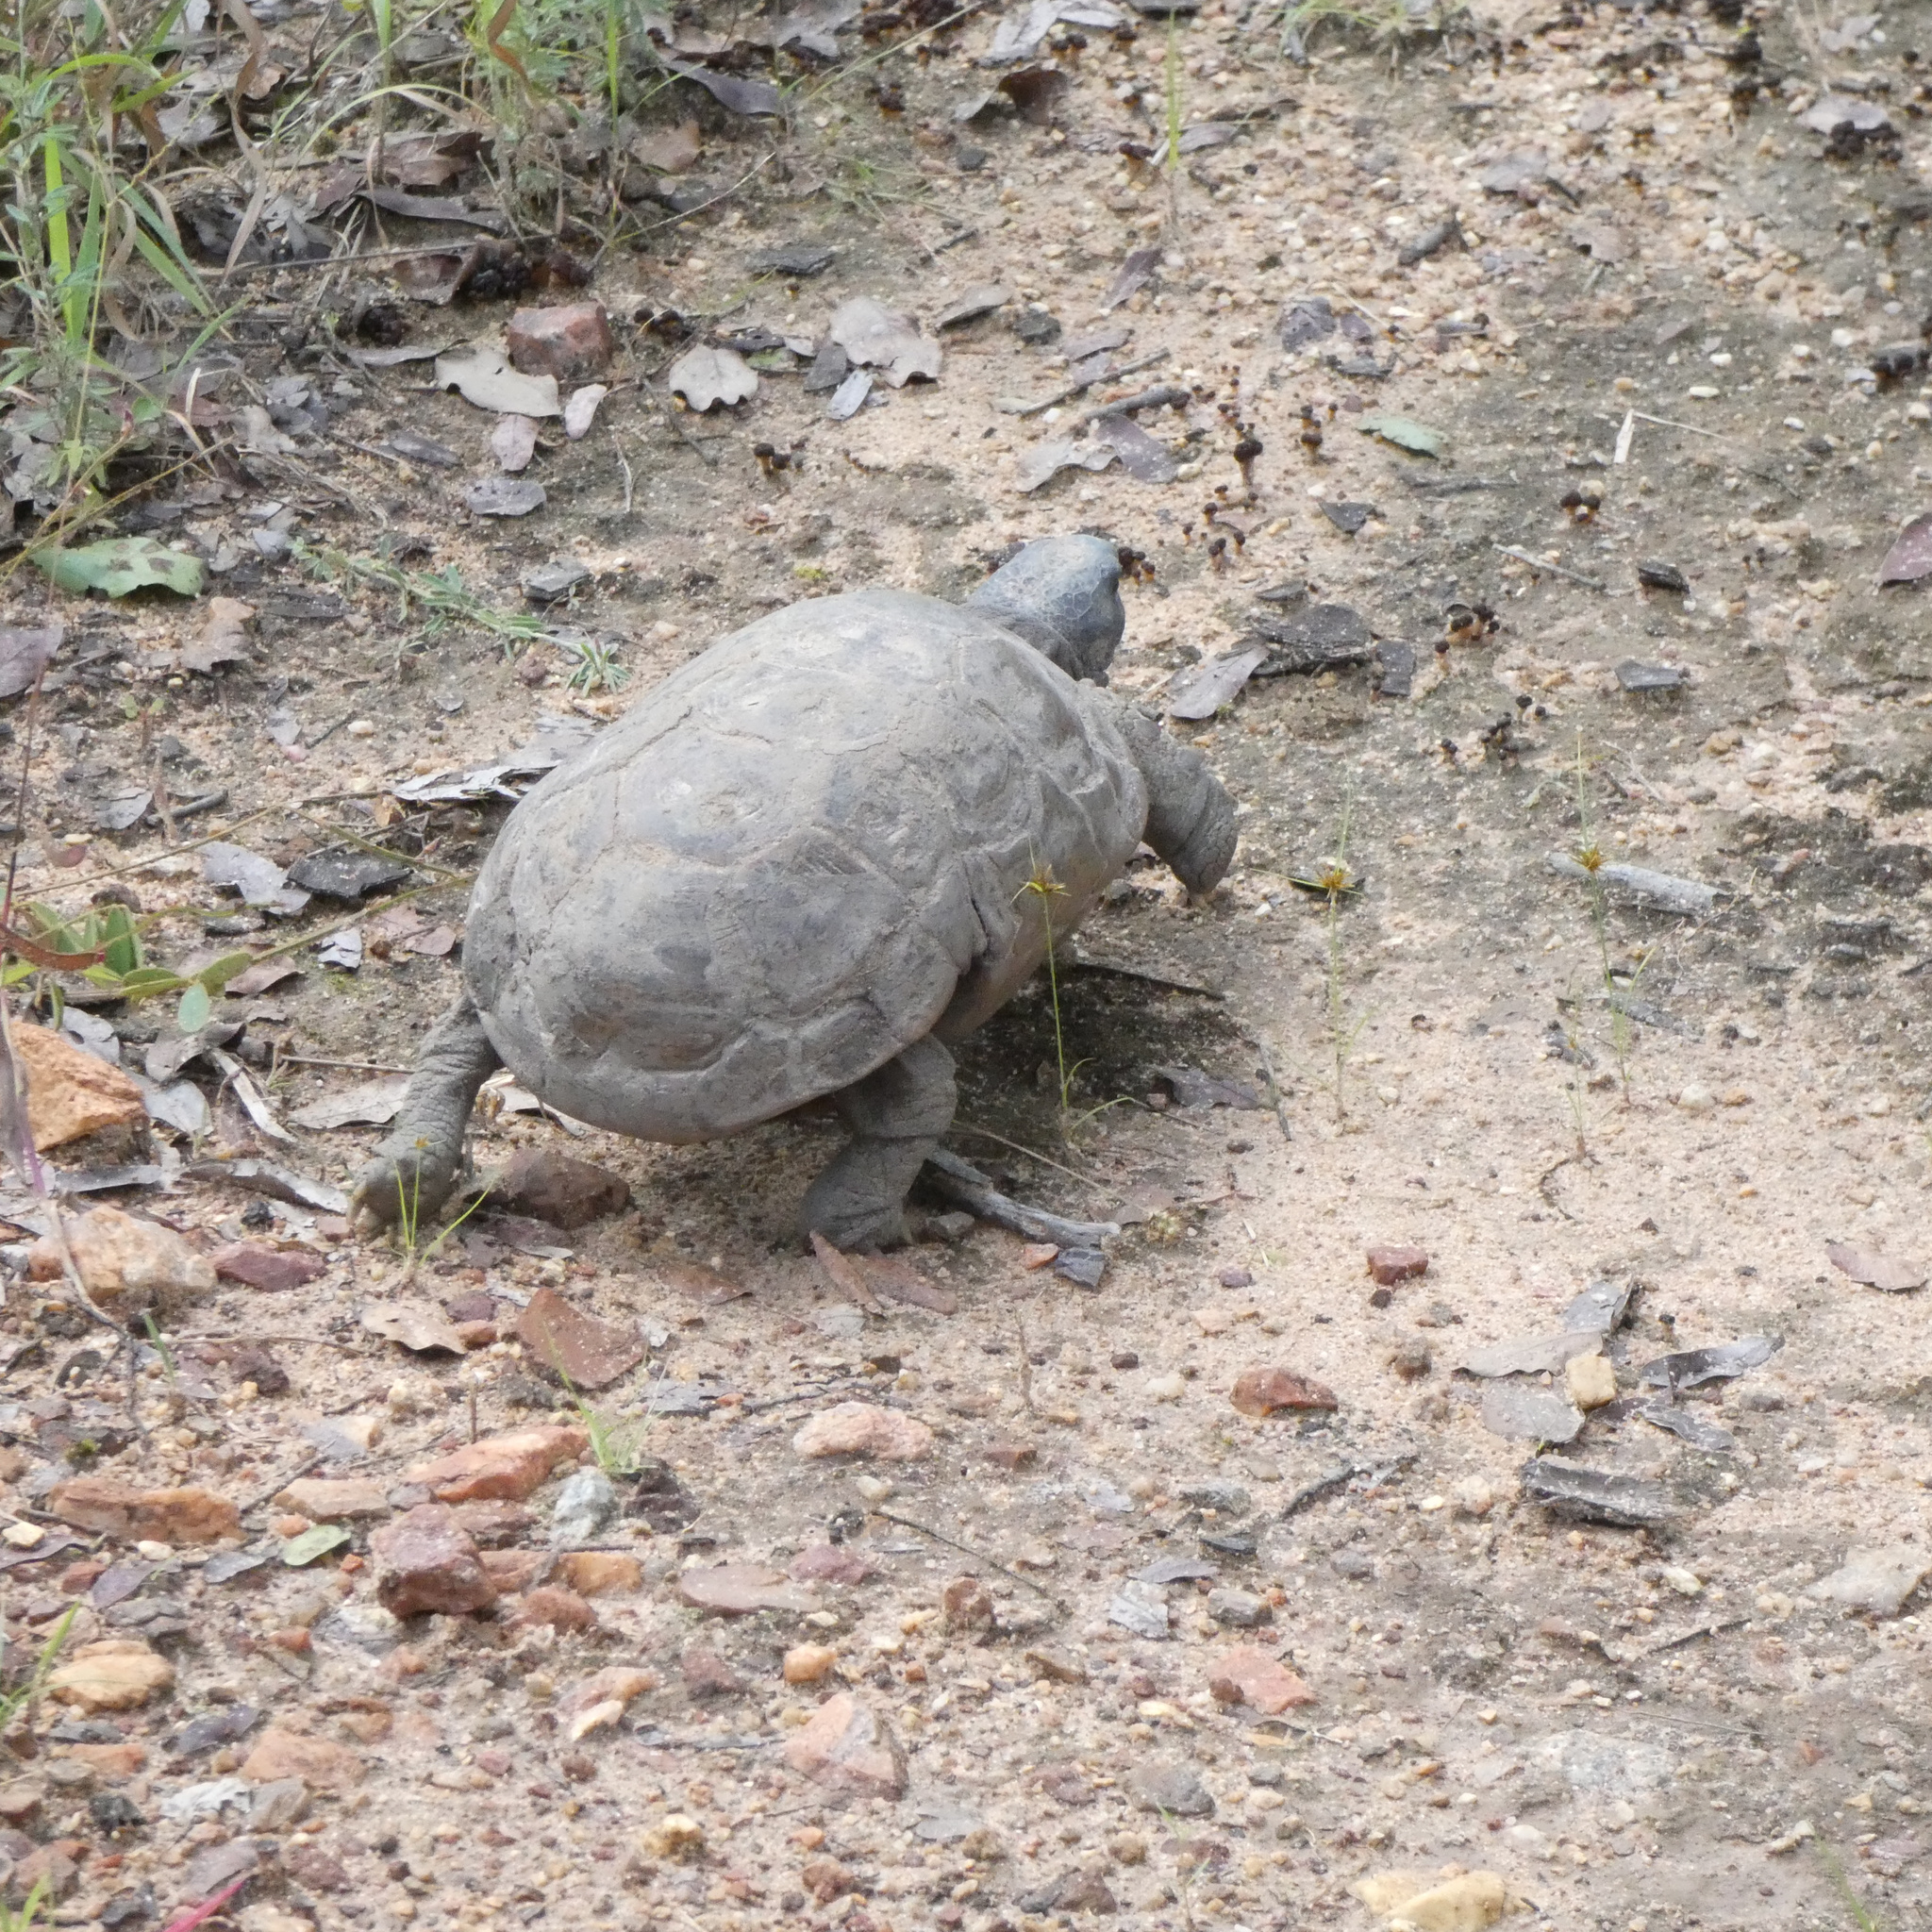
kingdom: Animalia
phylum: Chordata
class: Testudines
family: Testudinidae
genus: Kinixys
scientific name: Kinixys spekii
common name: Speke's hingeback tortoise
